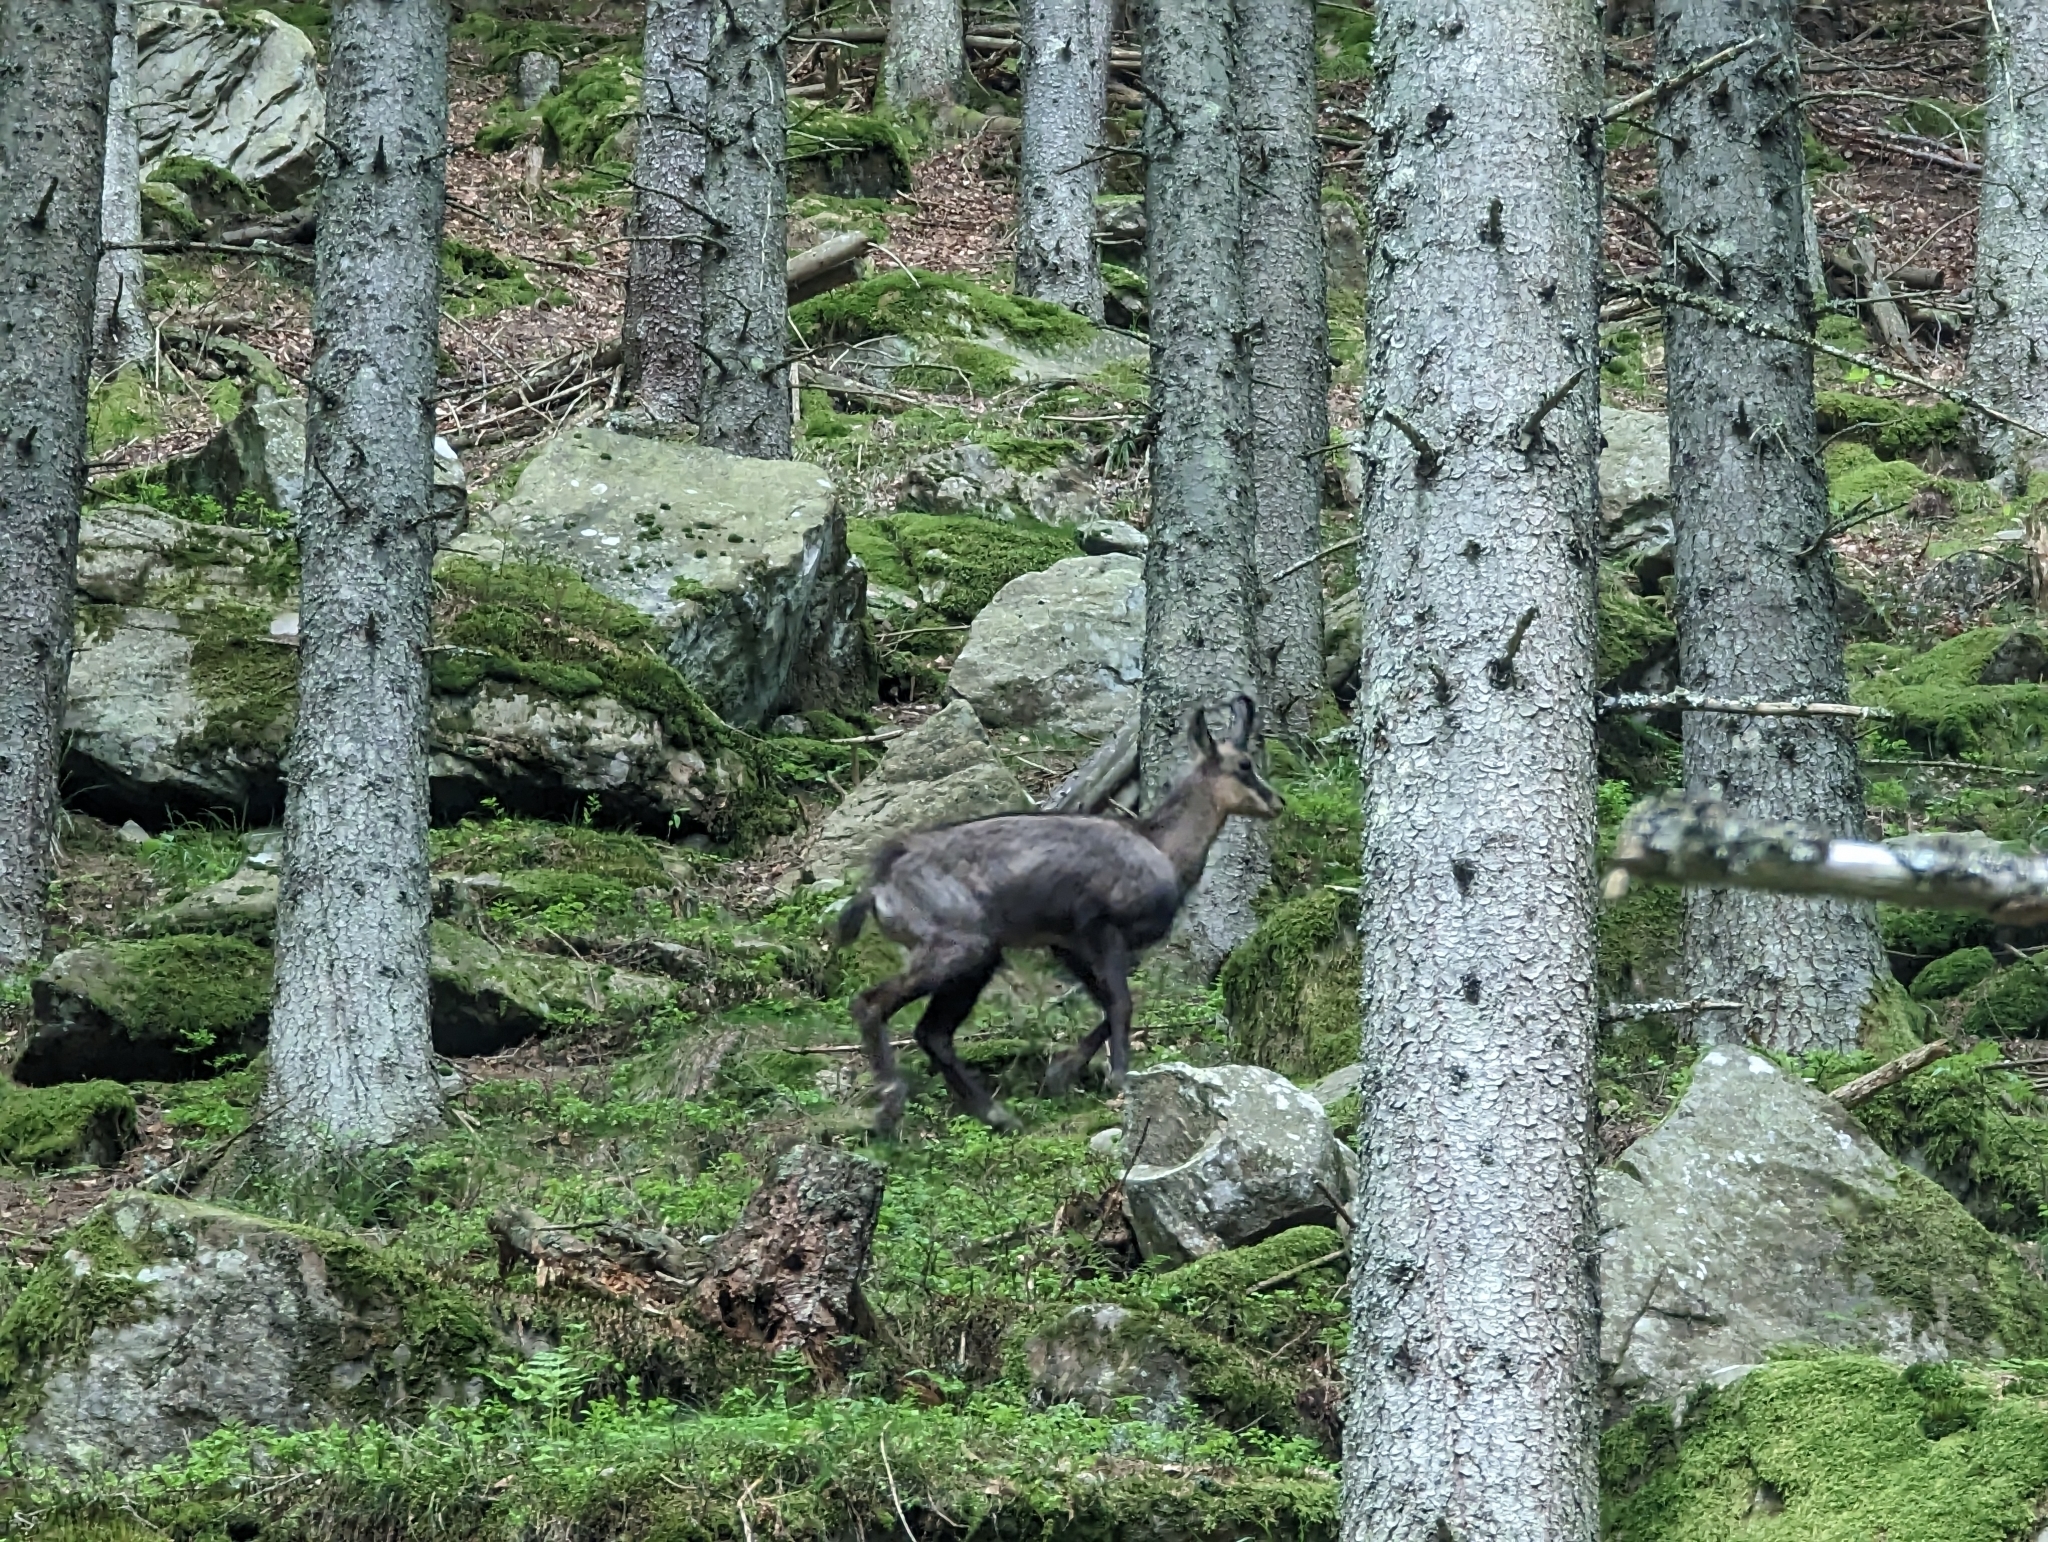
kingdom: Animalia
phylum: Chordata
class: Mammalia
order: Artiodactyla
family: Bovidae
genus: Rupicapra
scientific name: Rupicapra rupicapra
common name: Chamois
